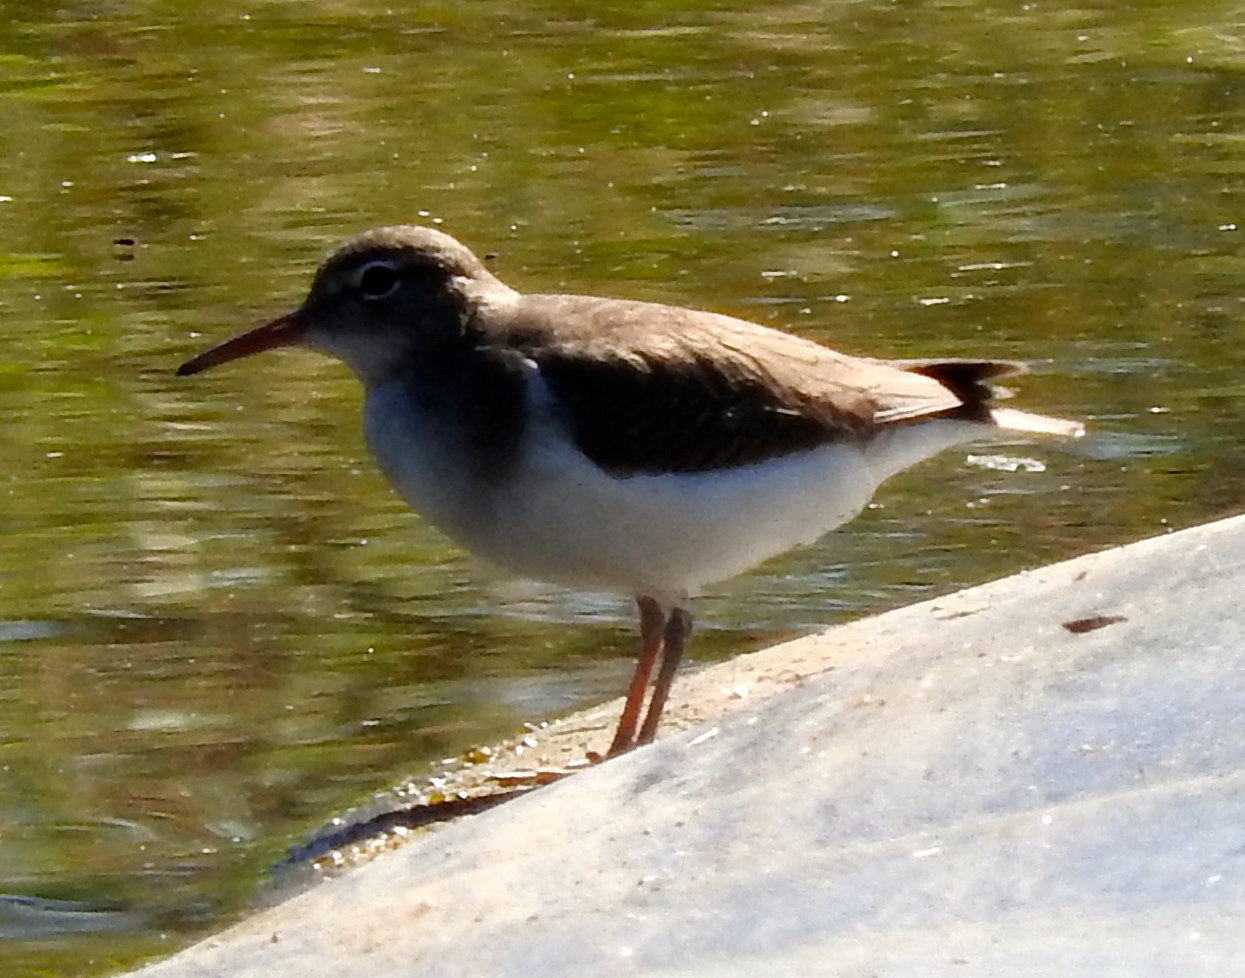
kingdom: Animalia
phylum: Chordata
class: Aves
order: Charadriiformes
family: Scolopacidae
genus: Actitis
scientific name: Actitis macularius
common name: Spotted sandpiper
